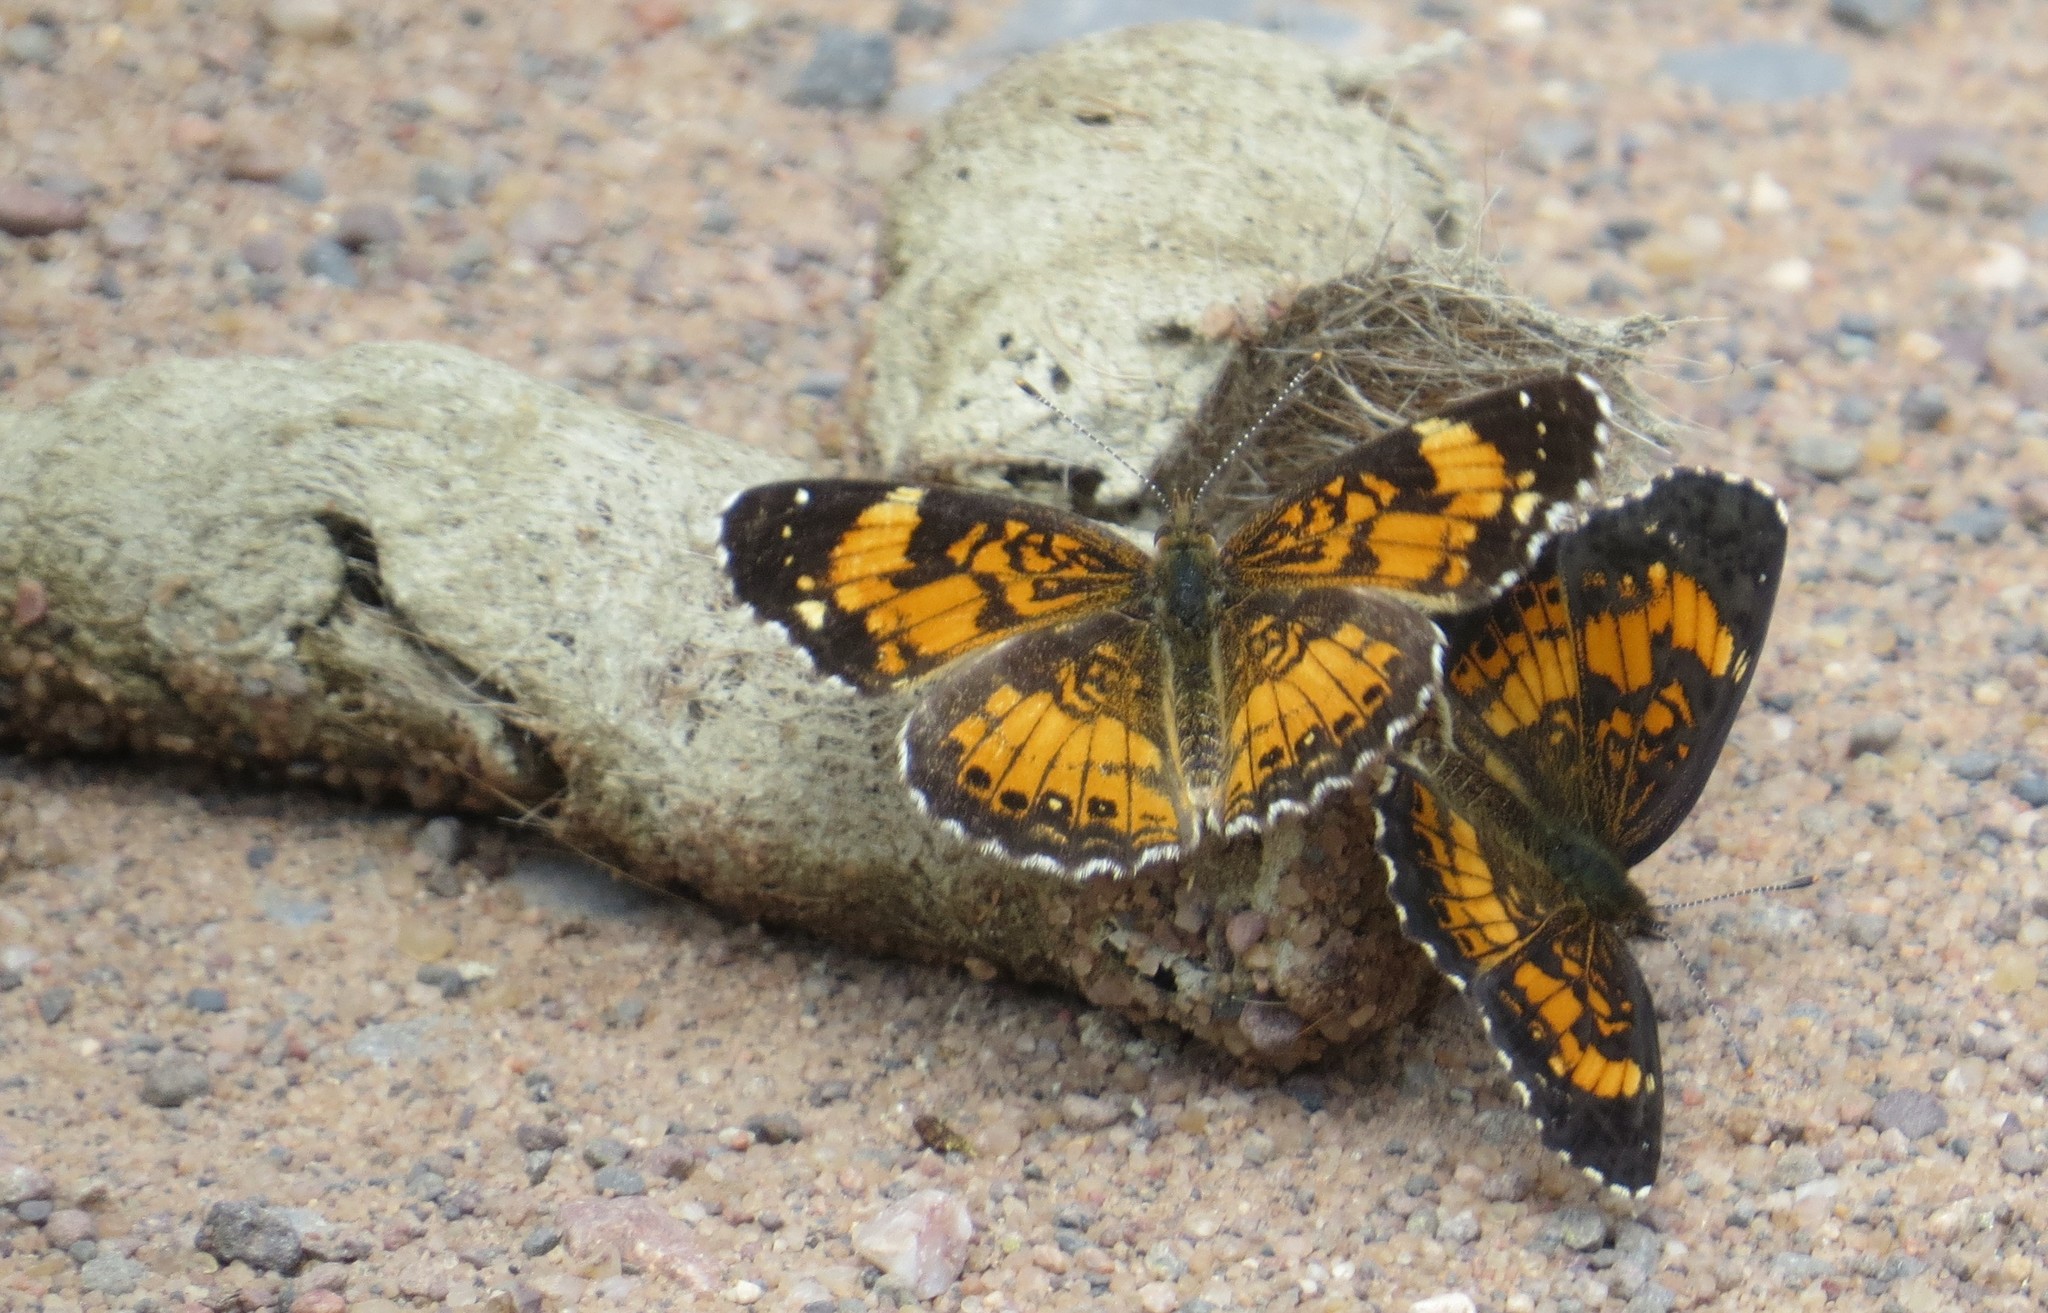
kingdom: Animalia
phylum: Arthropoda
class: Insecta
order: Lepidoptera
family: Nymphalidae
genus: Chlosyne
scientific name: Chlosyne nycteis
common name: Silvery checkerspot
